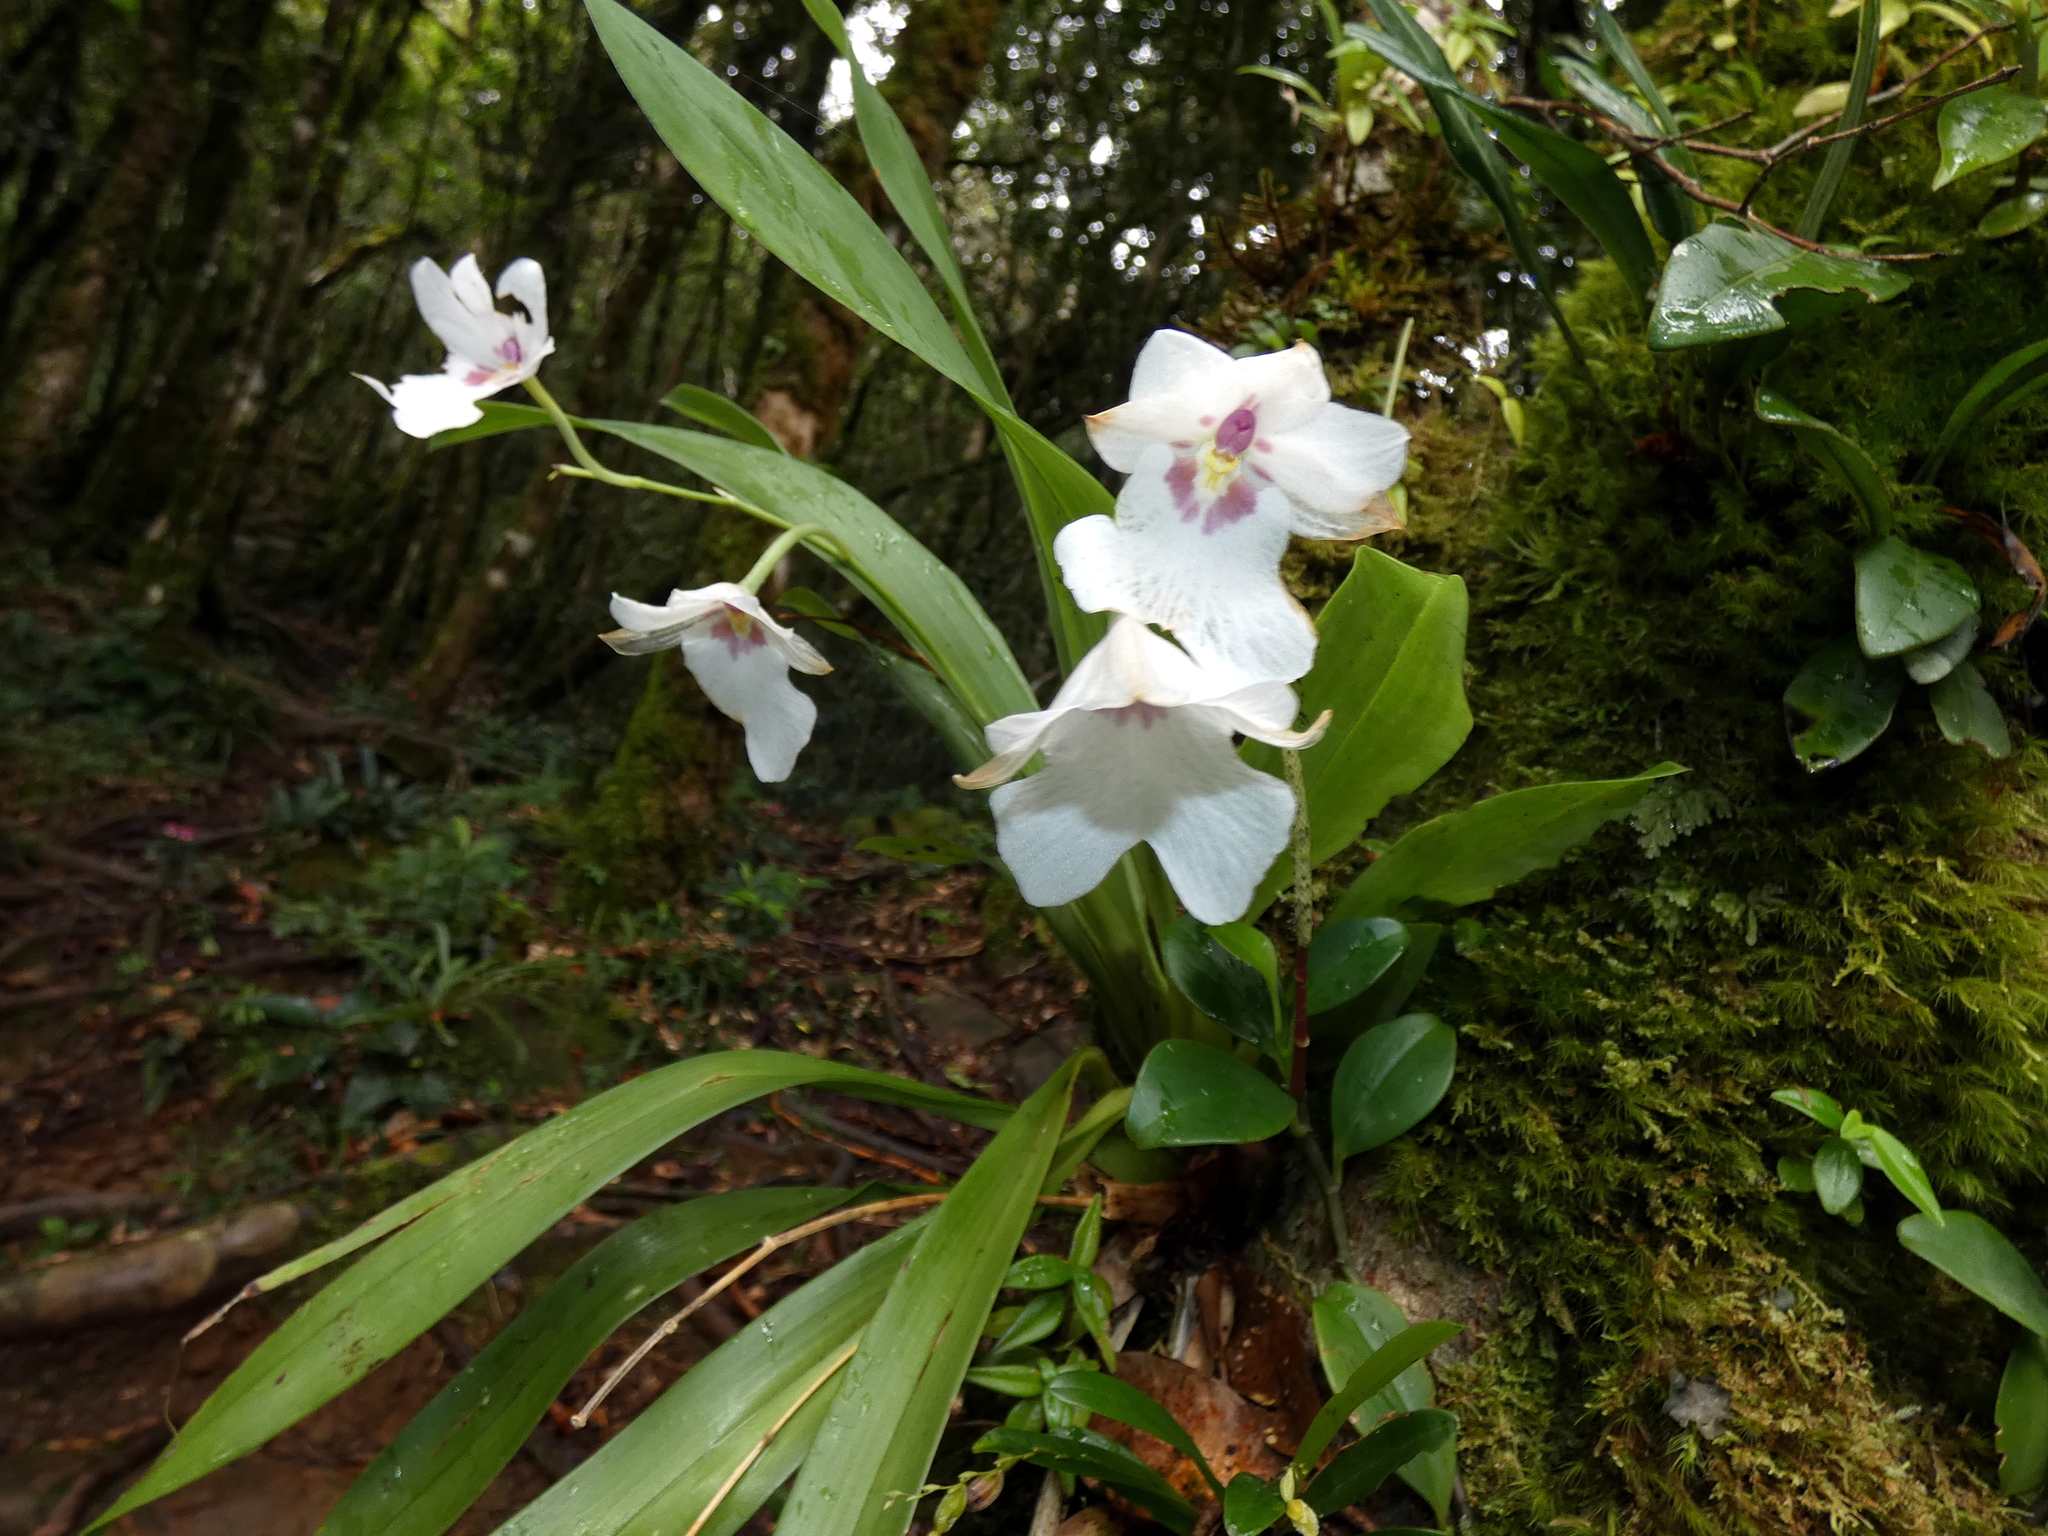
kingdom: Plantae
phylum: Tracheophyta
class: Liliopsida
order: Asparagales
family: Orchidaceae
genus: Miltoniopsis
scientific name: Miltoniopsis warszewiczii
